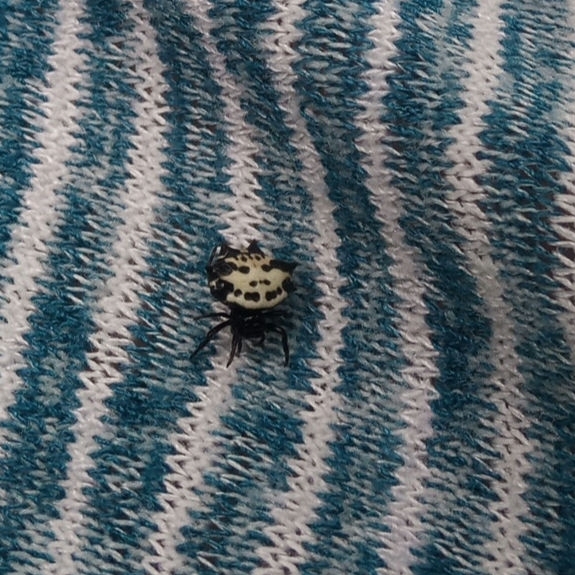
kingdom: Animalia
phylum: Arthropoda
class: Arachnida
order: Araneae
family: Araneidae
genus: Gasteracantha
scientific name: Gasteracantha cancriformis
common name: Orb weavers
